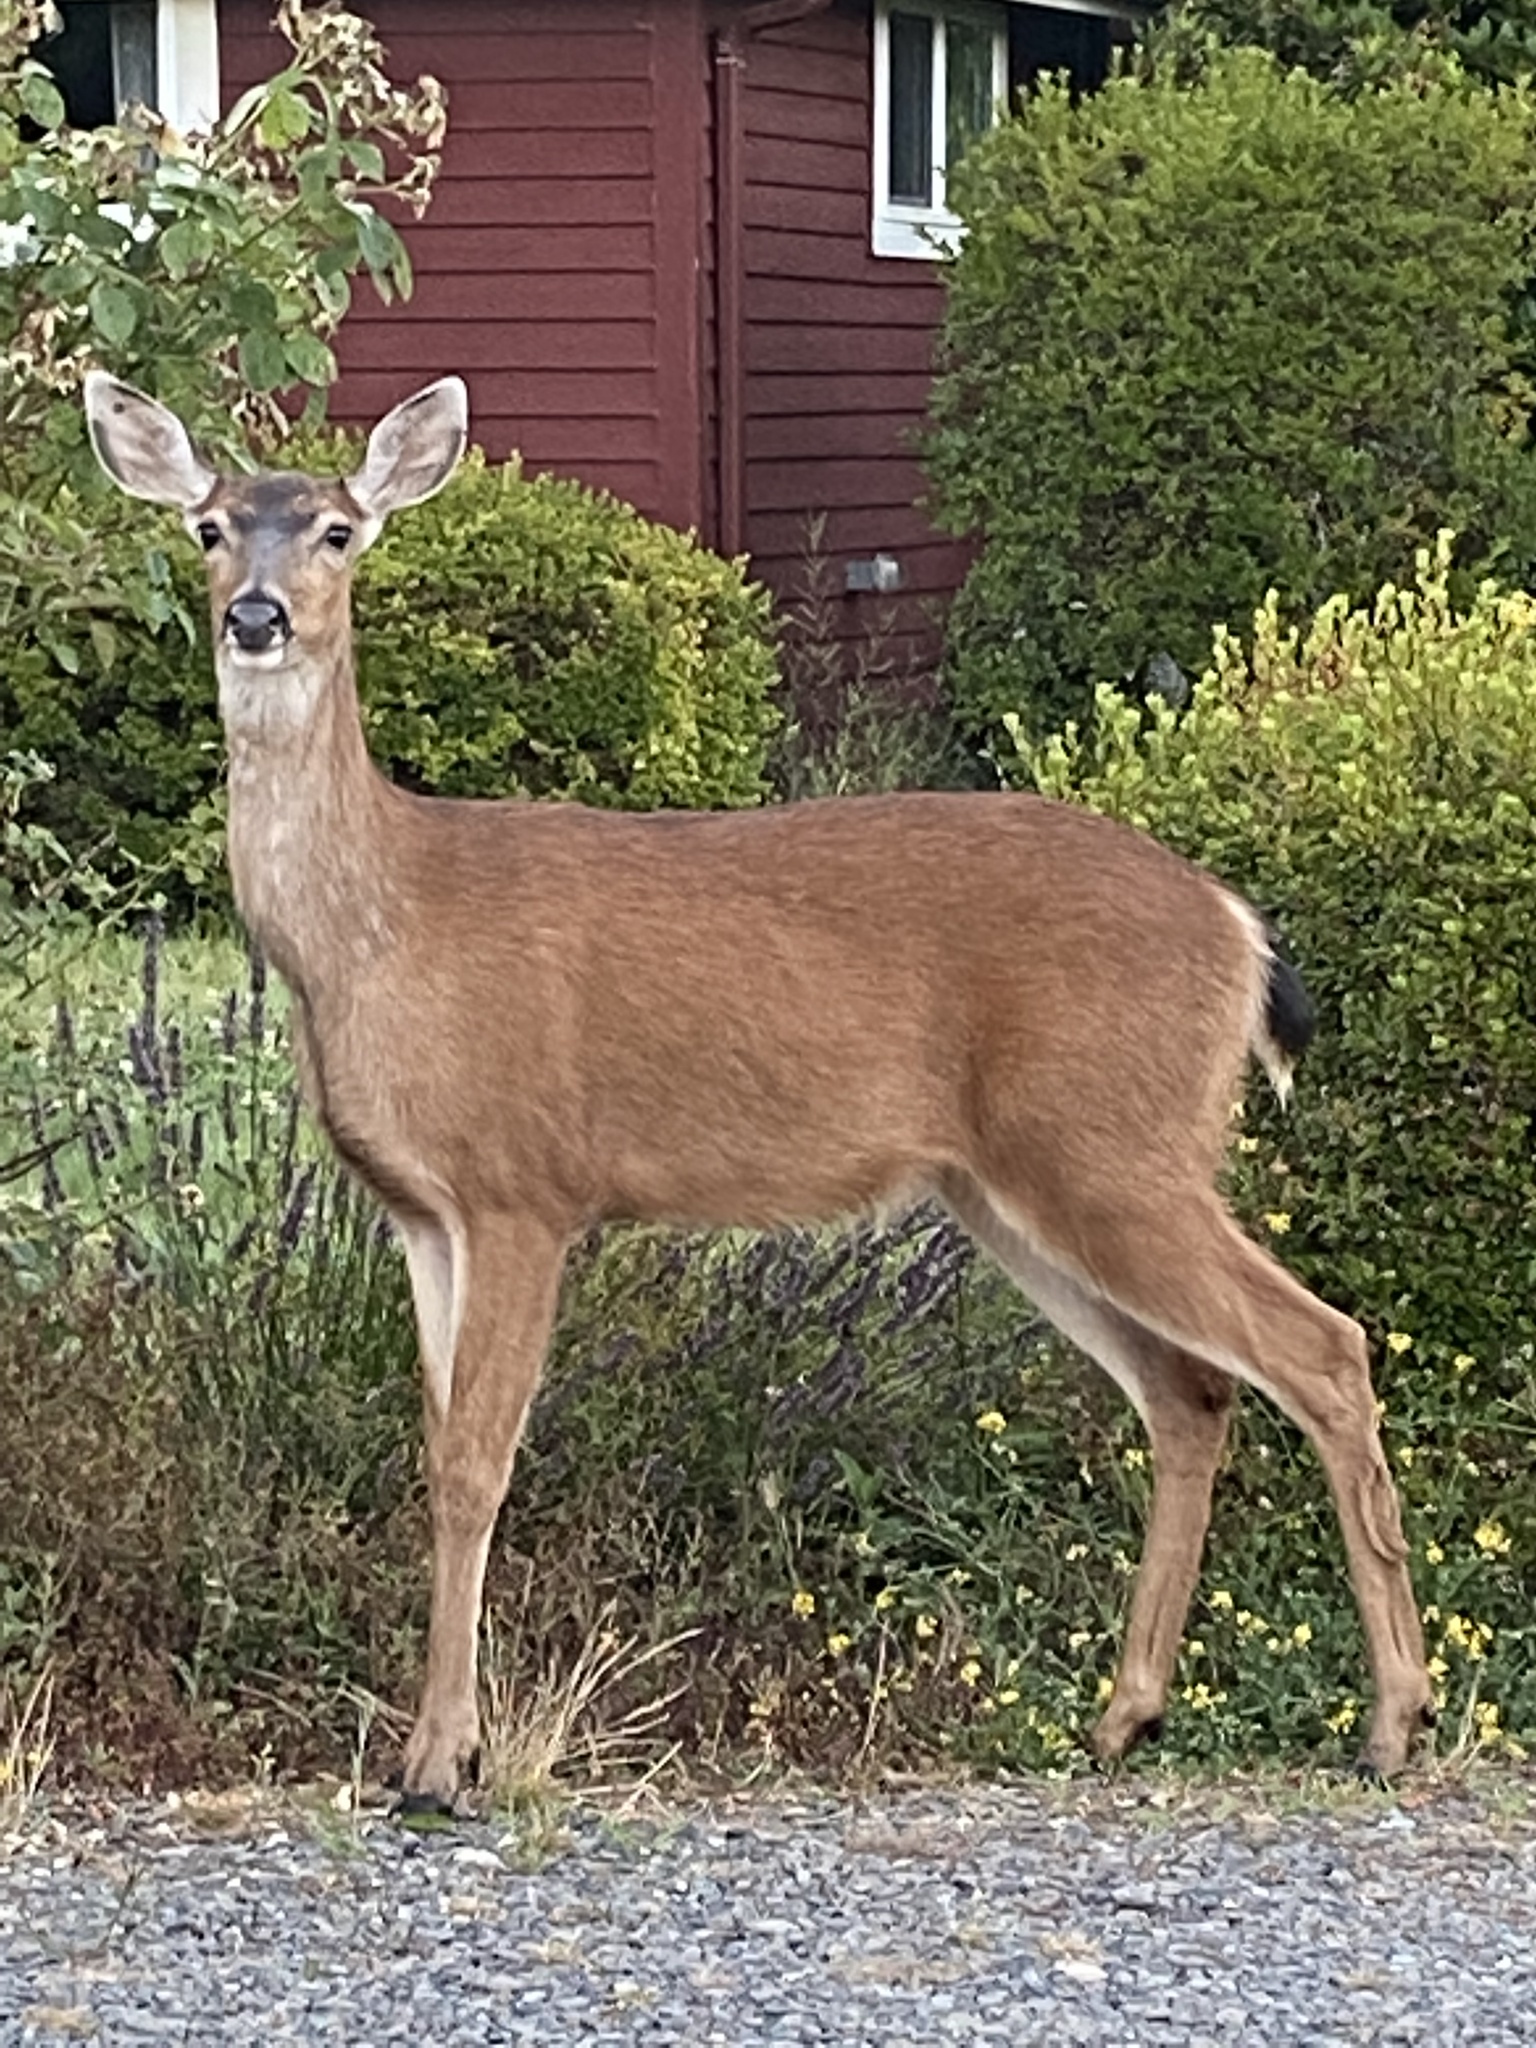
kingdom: Animalia
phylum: Chordata
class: Mammalia
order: Artiodactyla
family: Cervidae
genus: Odocoileus
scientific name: Odocoileus hemionus
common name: Mule deer
